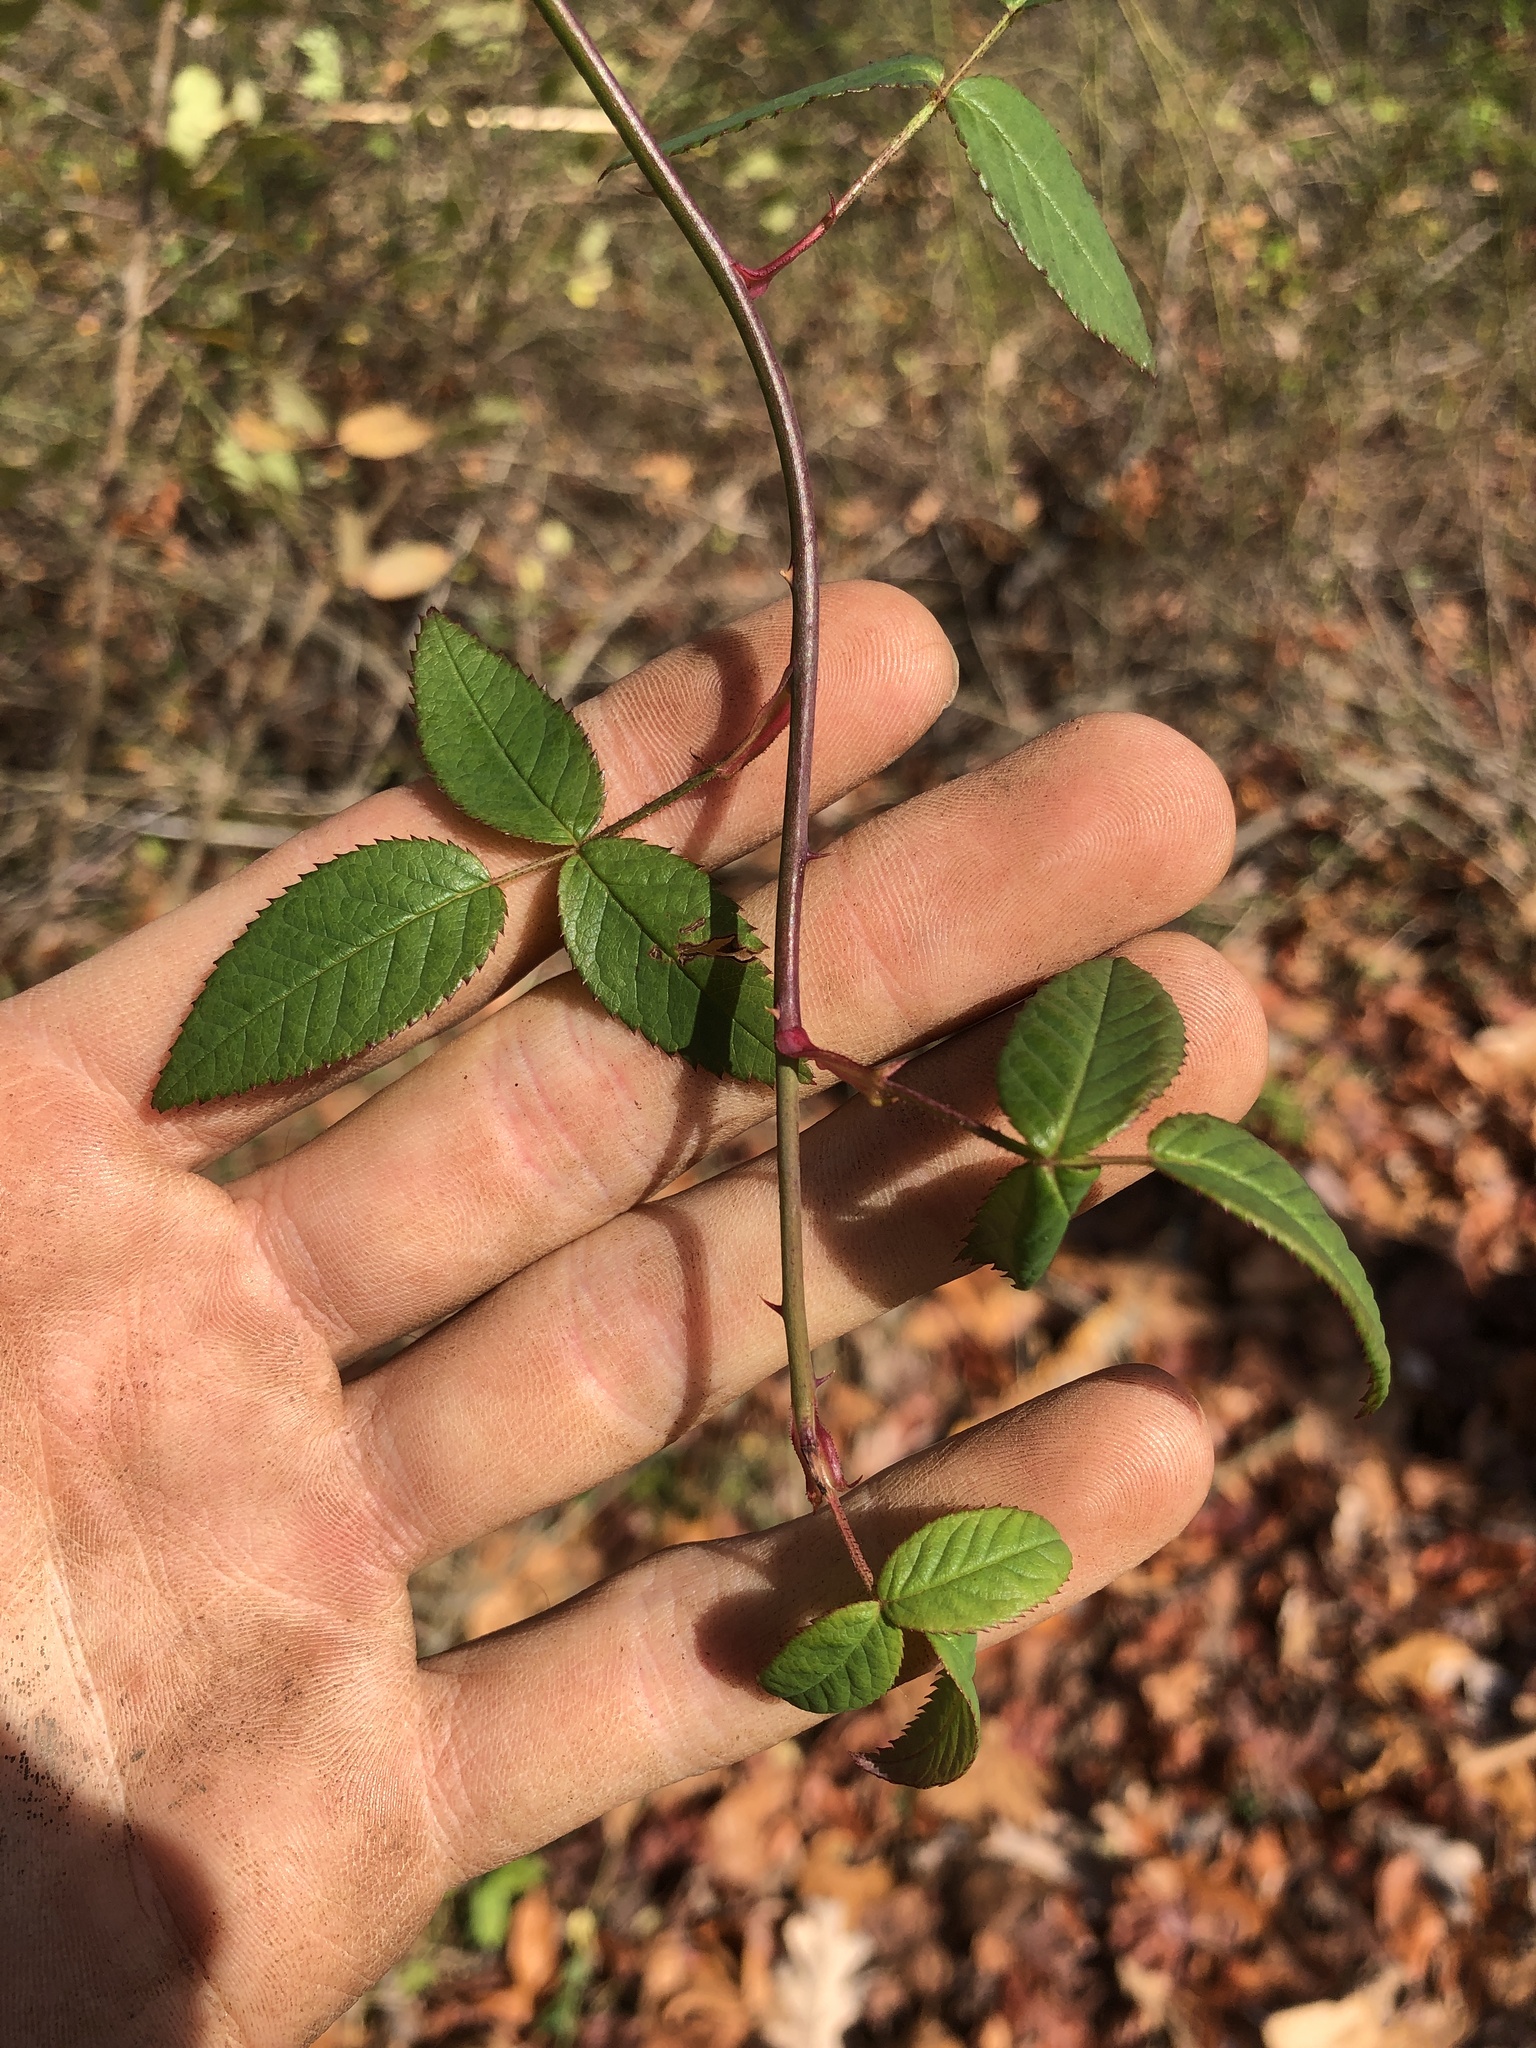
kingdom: Plantae
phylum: Tracheophyta
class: Magnoliopsida
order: Rosales
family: Rosaceae
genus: Rosa
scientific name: Rosa setigera
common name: Prairie rose
